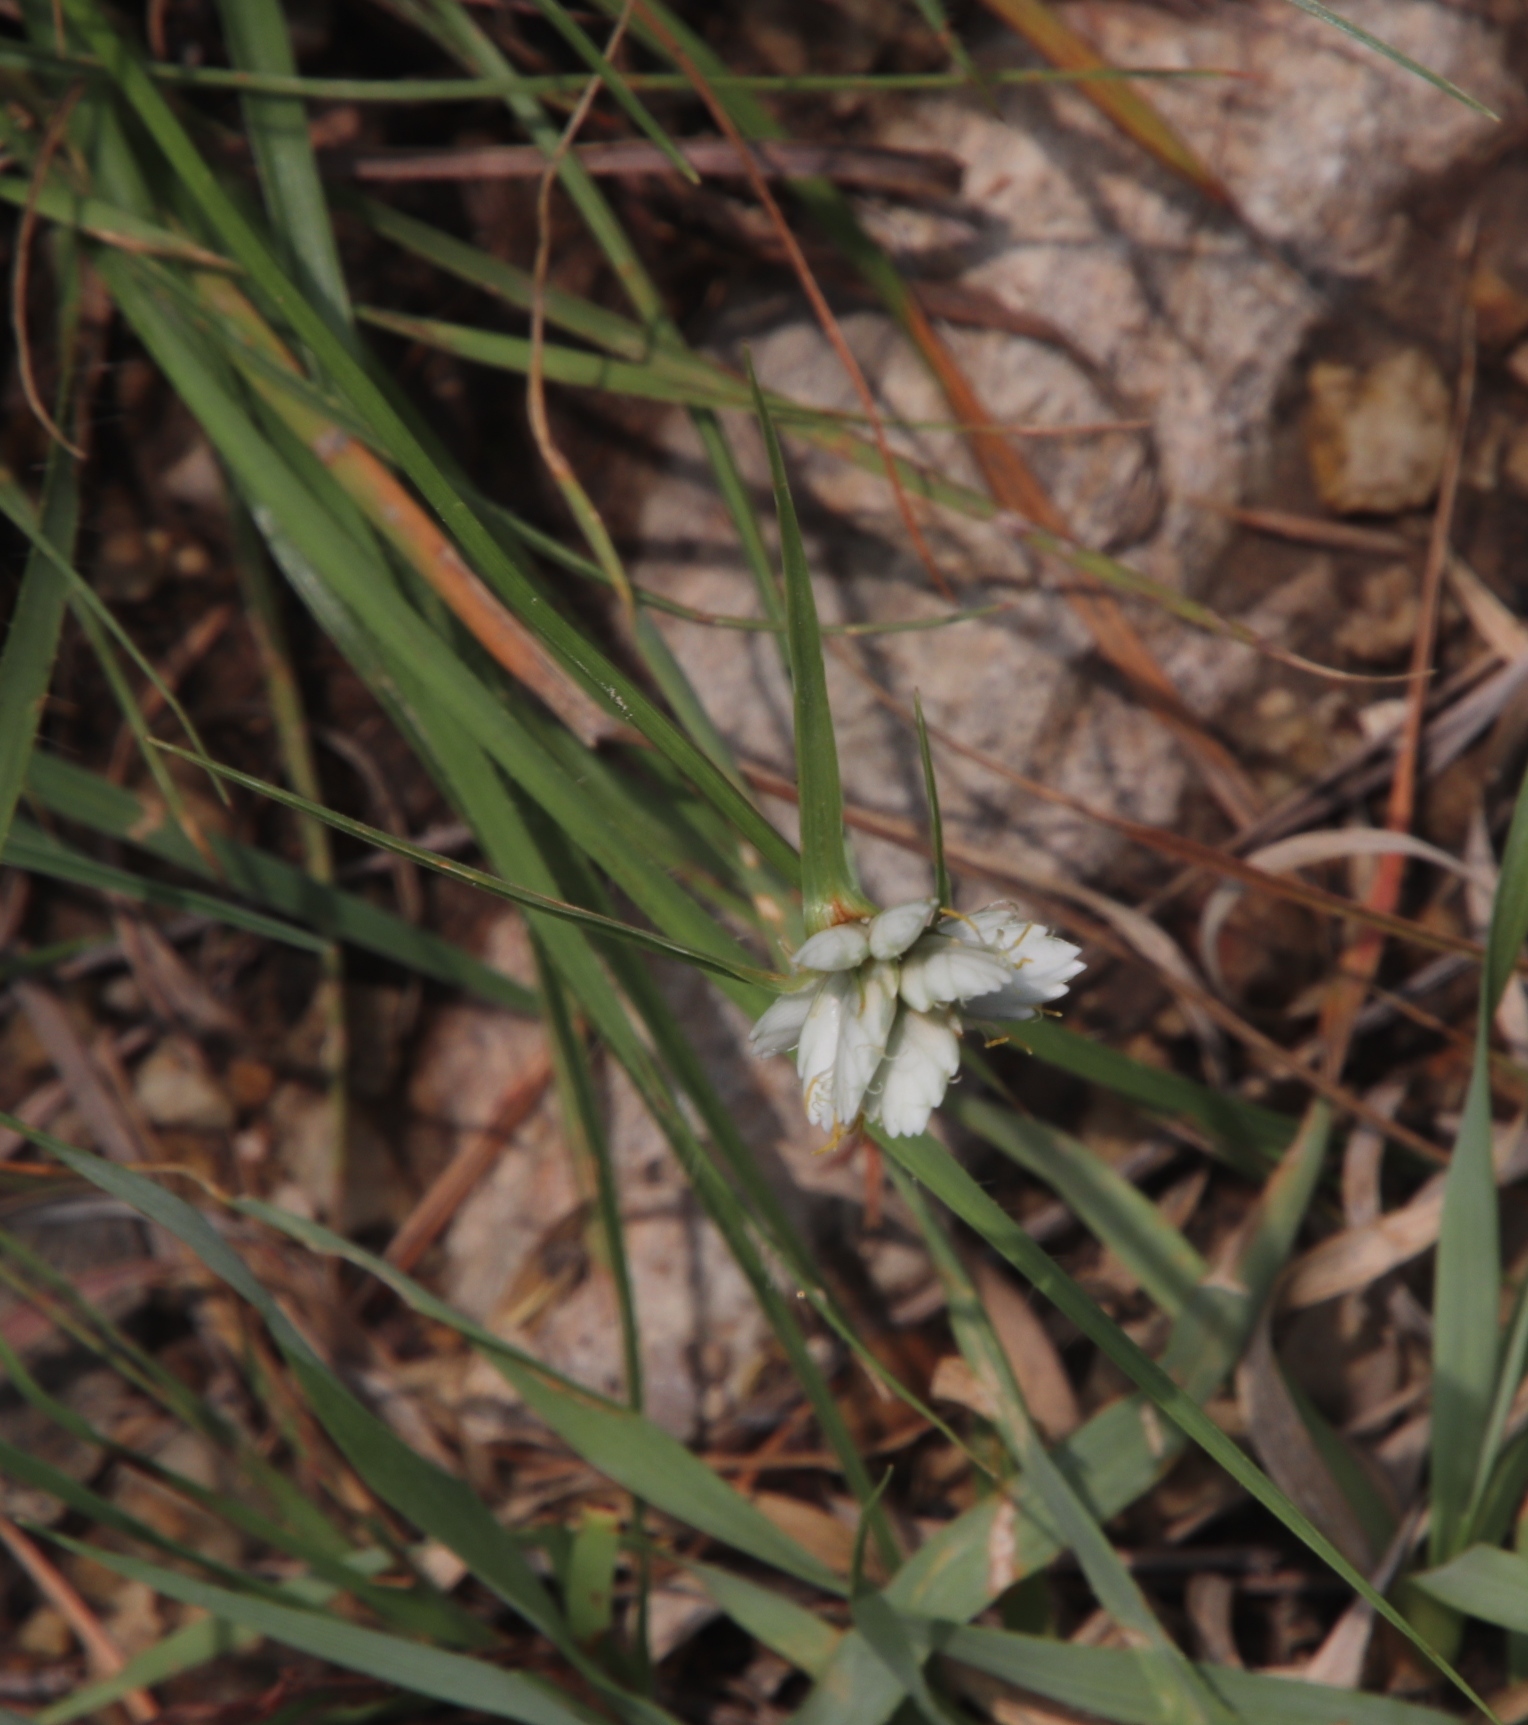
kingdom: Plantae
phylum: Tracheophyta
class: Liliopsida
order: Poales
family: Cyperaceae
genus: Cyperus
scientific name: Cyperus niveus
